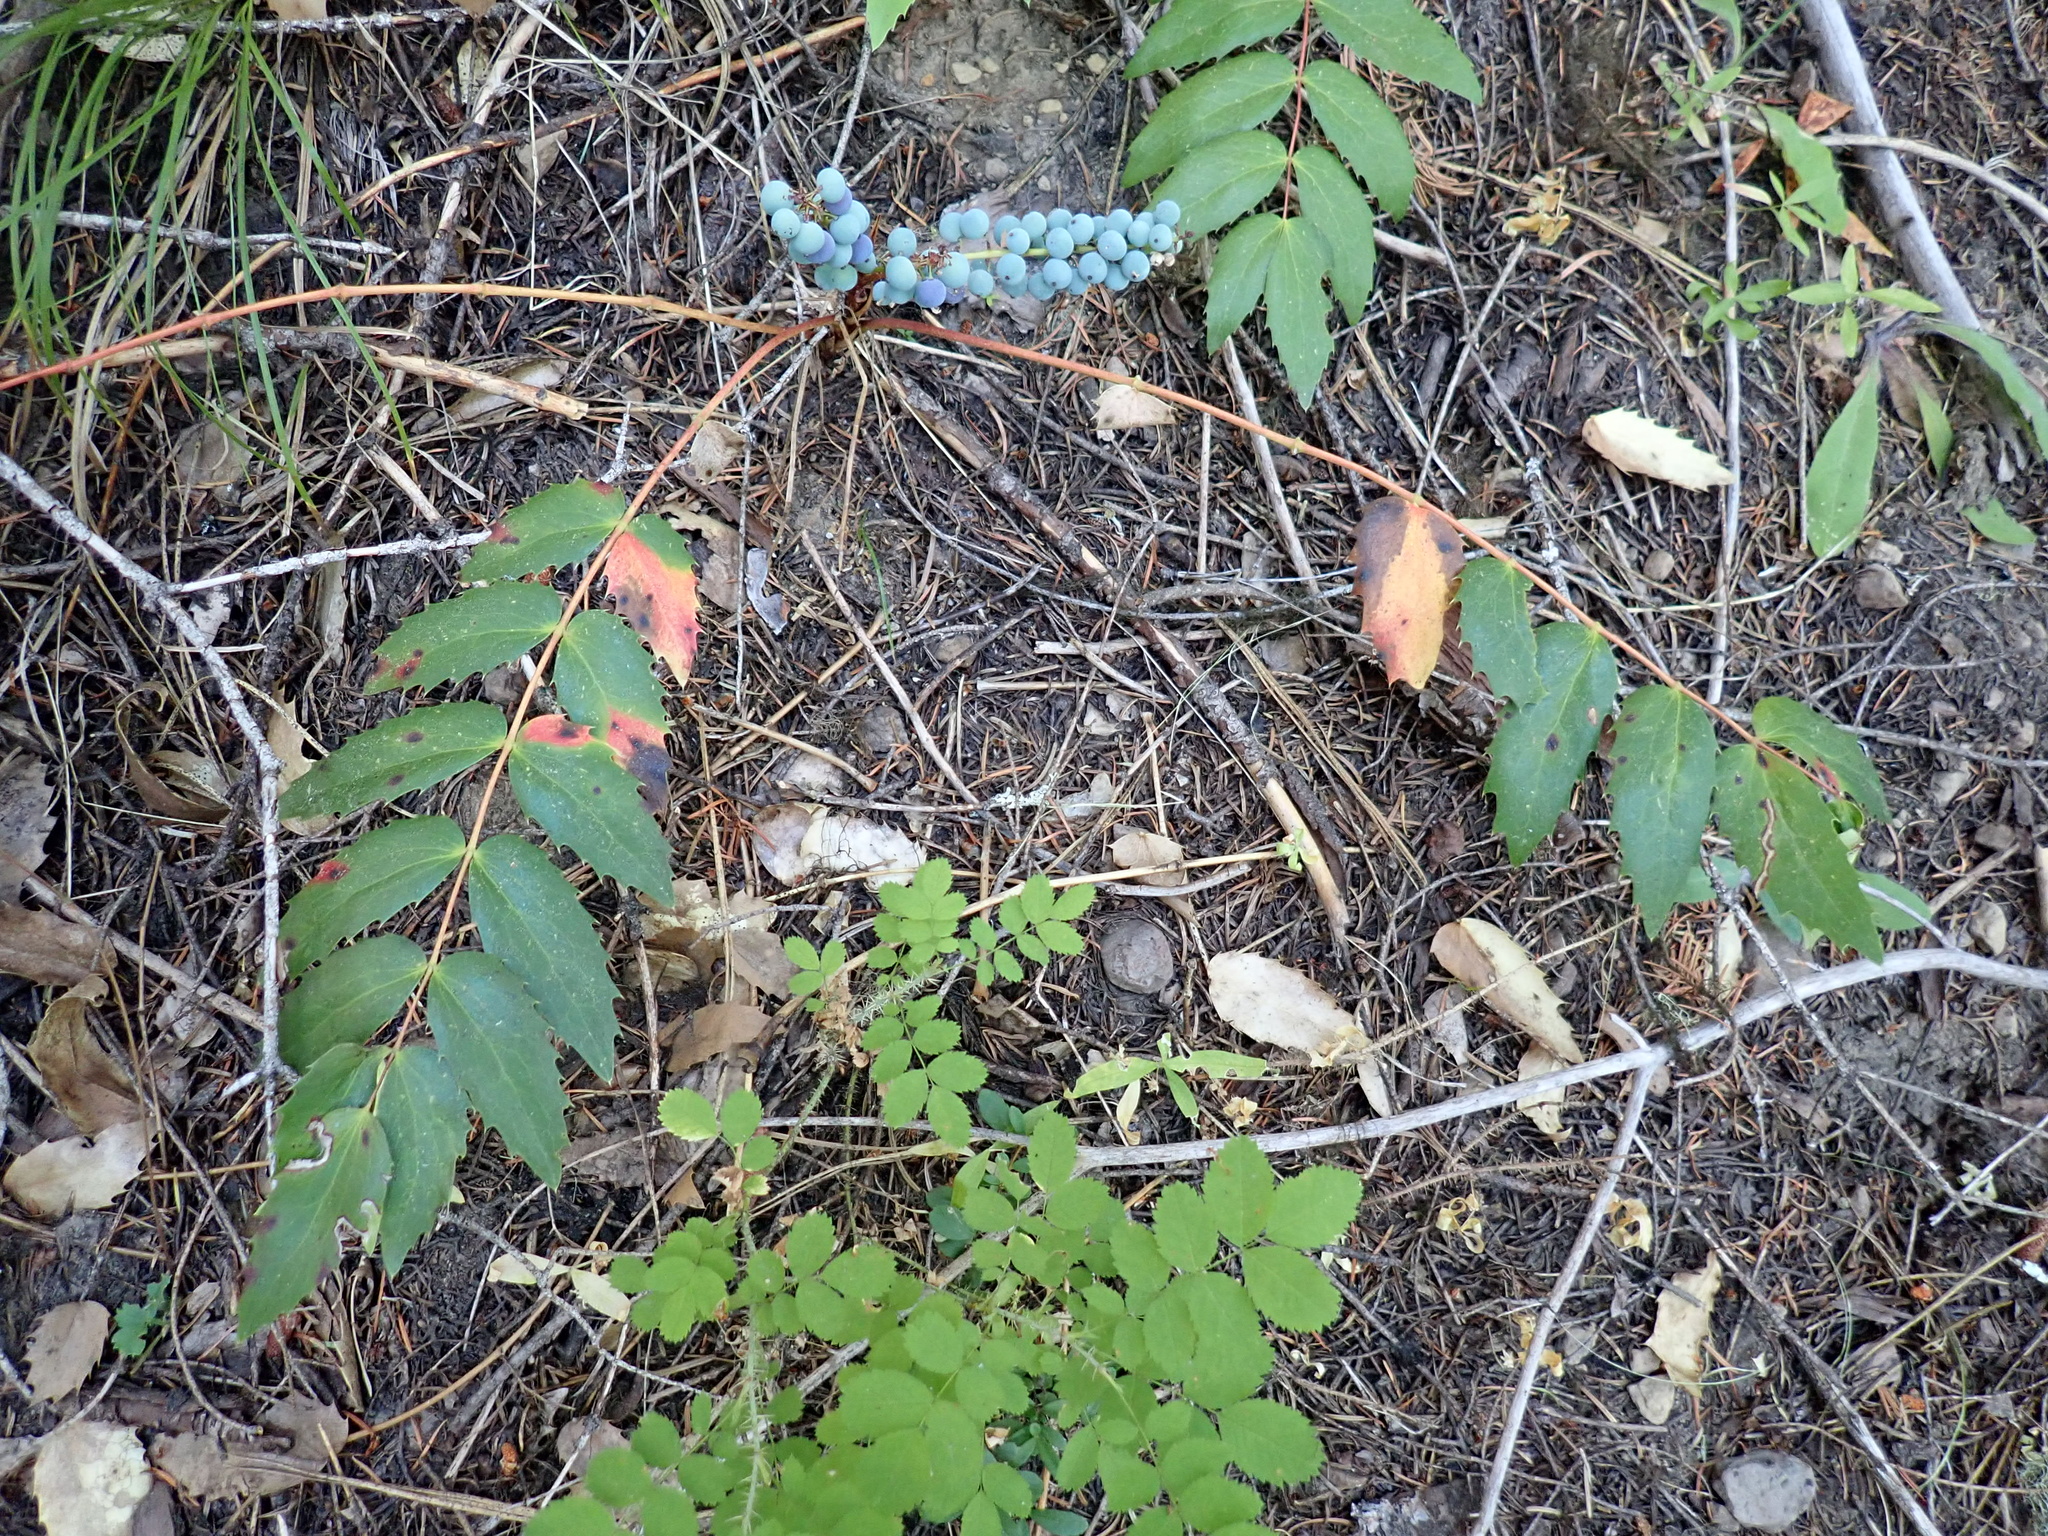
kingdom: Plantae
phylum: Tracheophyta
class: Magnoliopsida
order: Ranunculales
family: Berberidaceae
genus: Mahonia
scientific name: Mahonia nervosa
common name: Cascade oregon-grape
